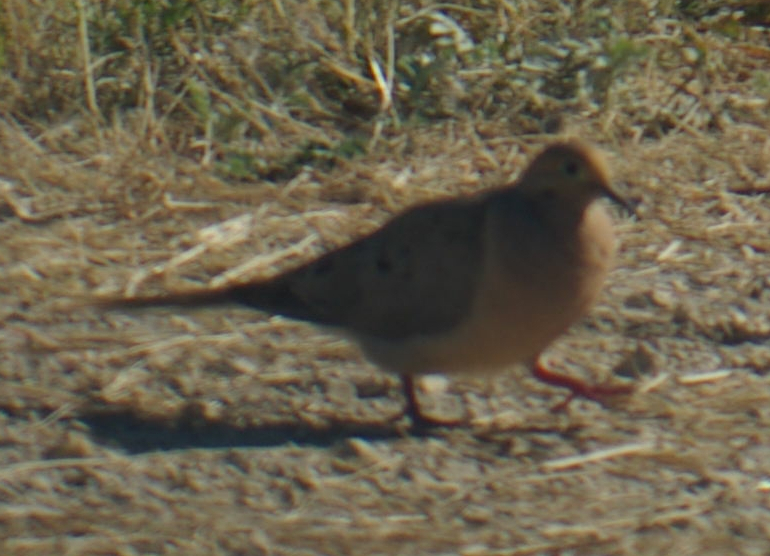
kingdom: Animalia
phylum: Chordata
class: Aves
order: Columbiformes
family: Columbidae
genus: Zenaida
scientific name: Zenaida macroura
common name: Mourning dove
